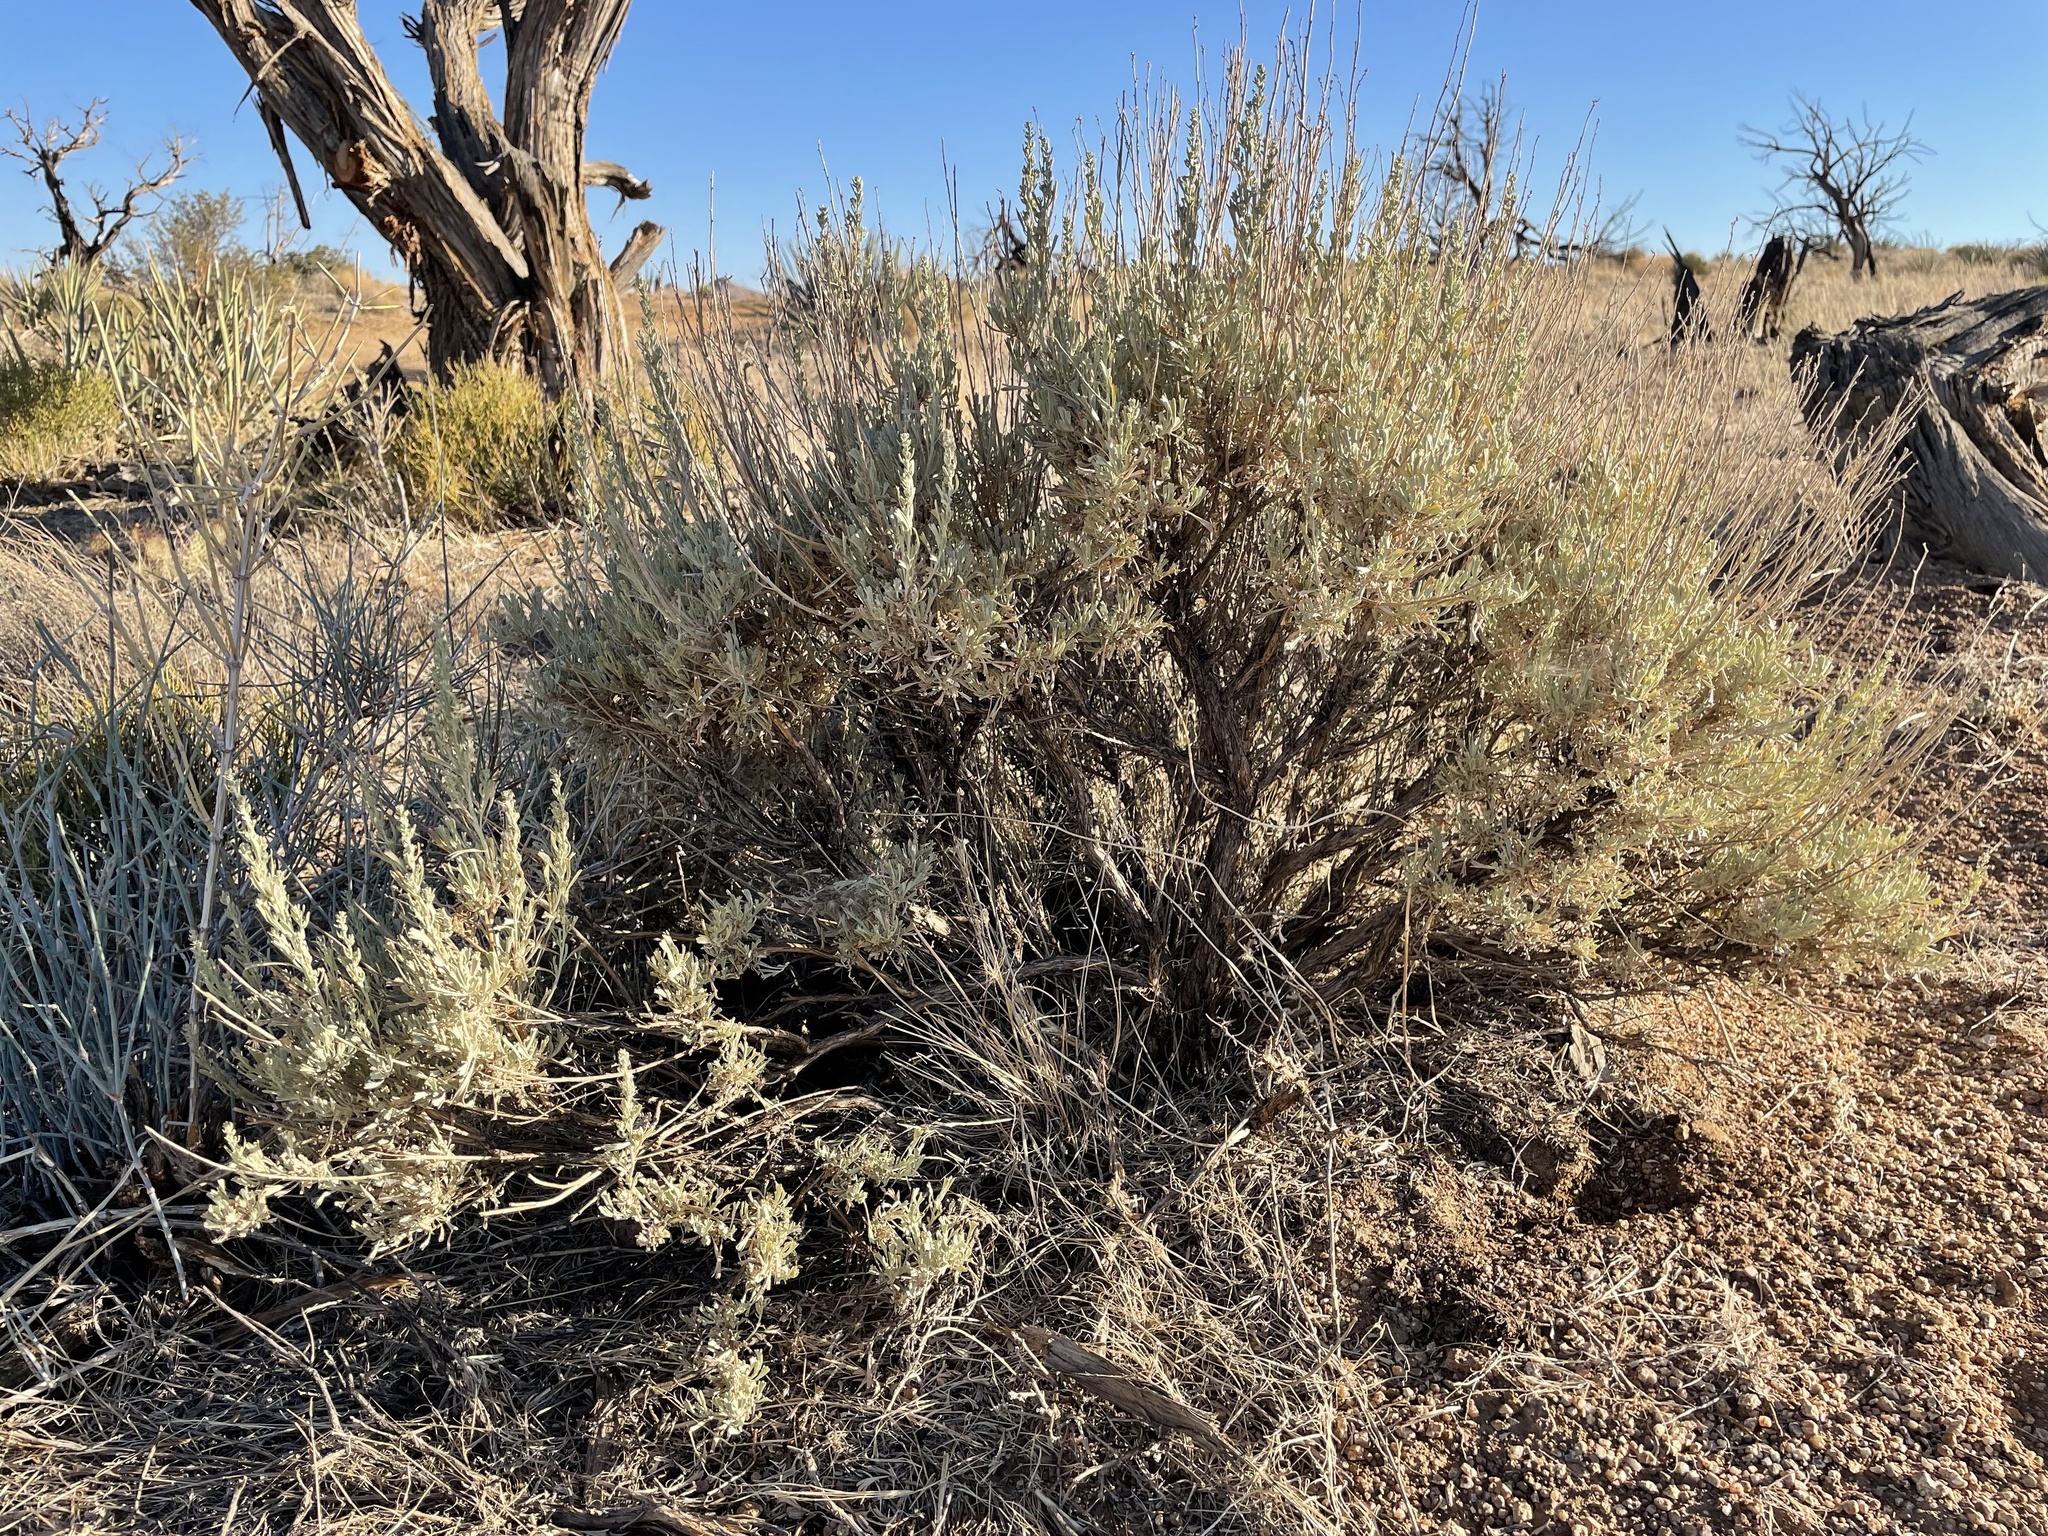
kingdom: Plantae
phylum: Tracheophyta
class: Magnoliopsida
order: Asterales
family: Asteraceae
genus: Artemisia
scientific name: Artemisia tridentata
